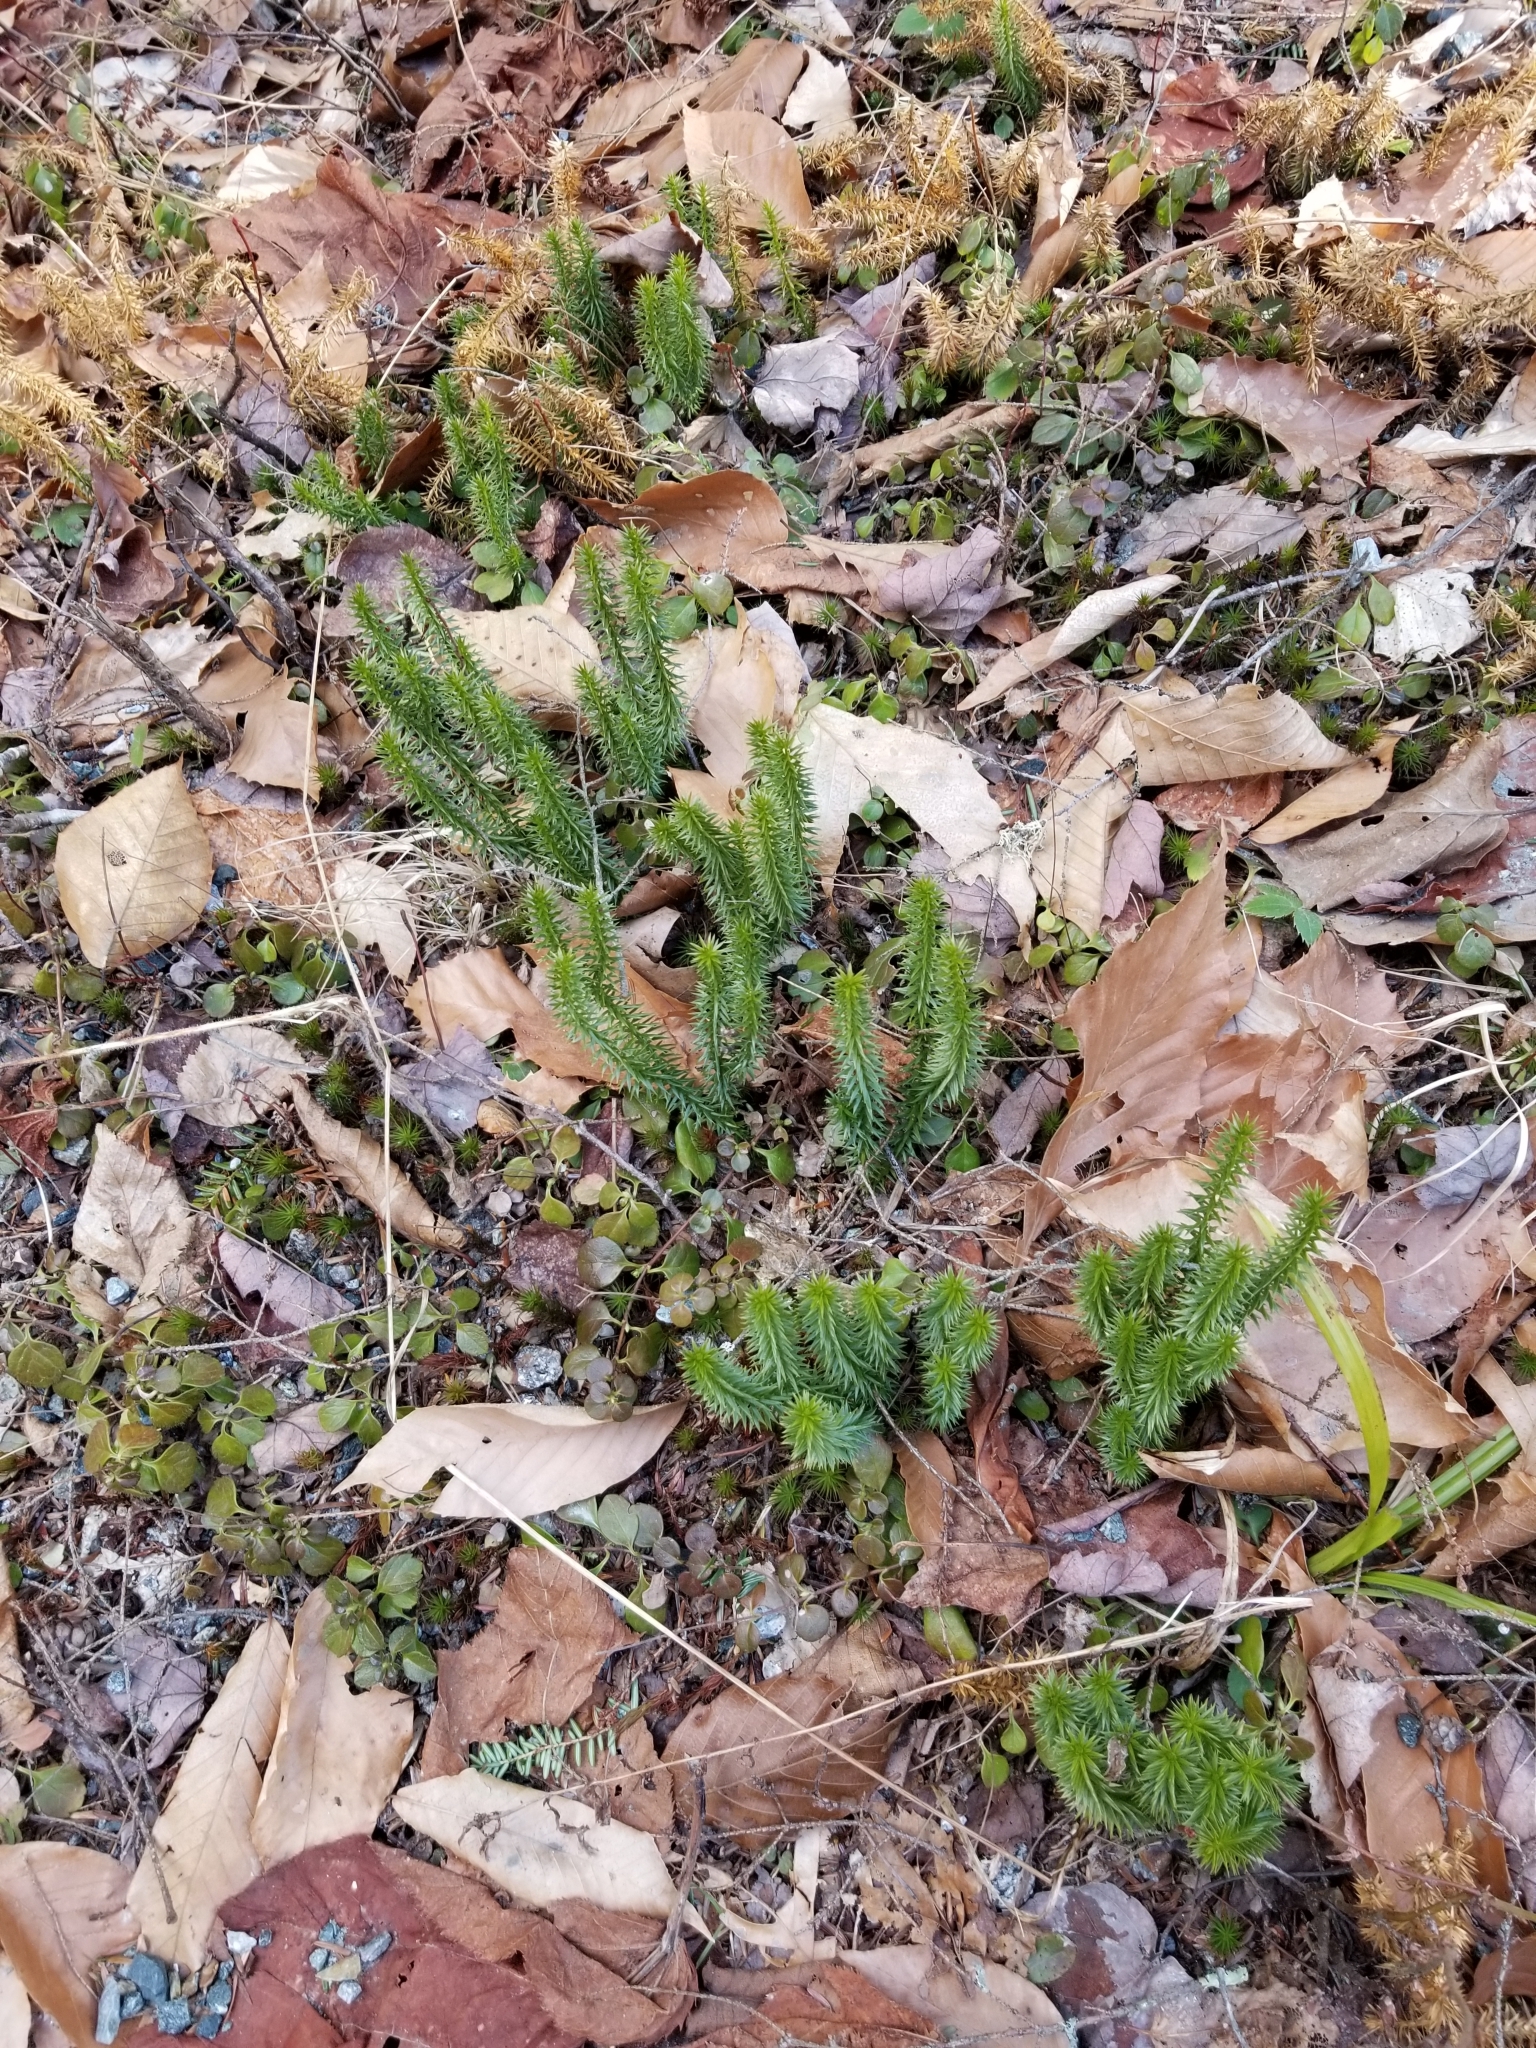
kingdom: Plantae
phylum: Tracheophyta
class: Lycopodiopsida
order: Lycopodiales
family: Lycopodiaceae
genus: Huperzia
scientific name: Huperzia lucidula
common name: Shining clubmoss
